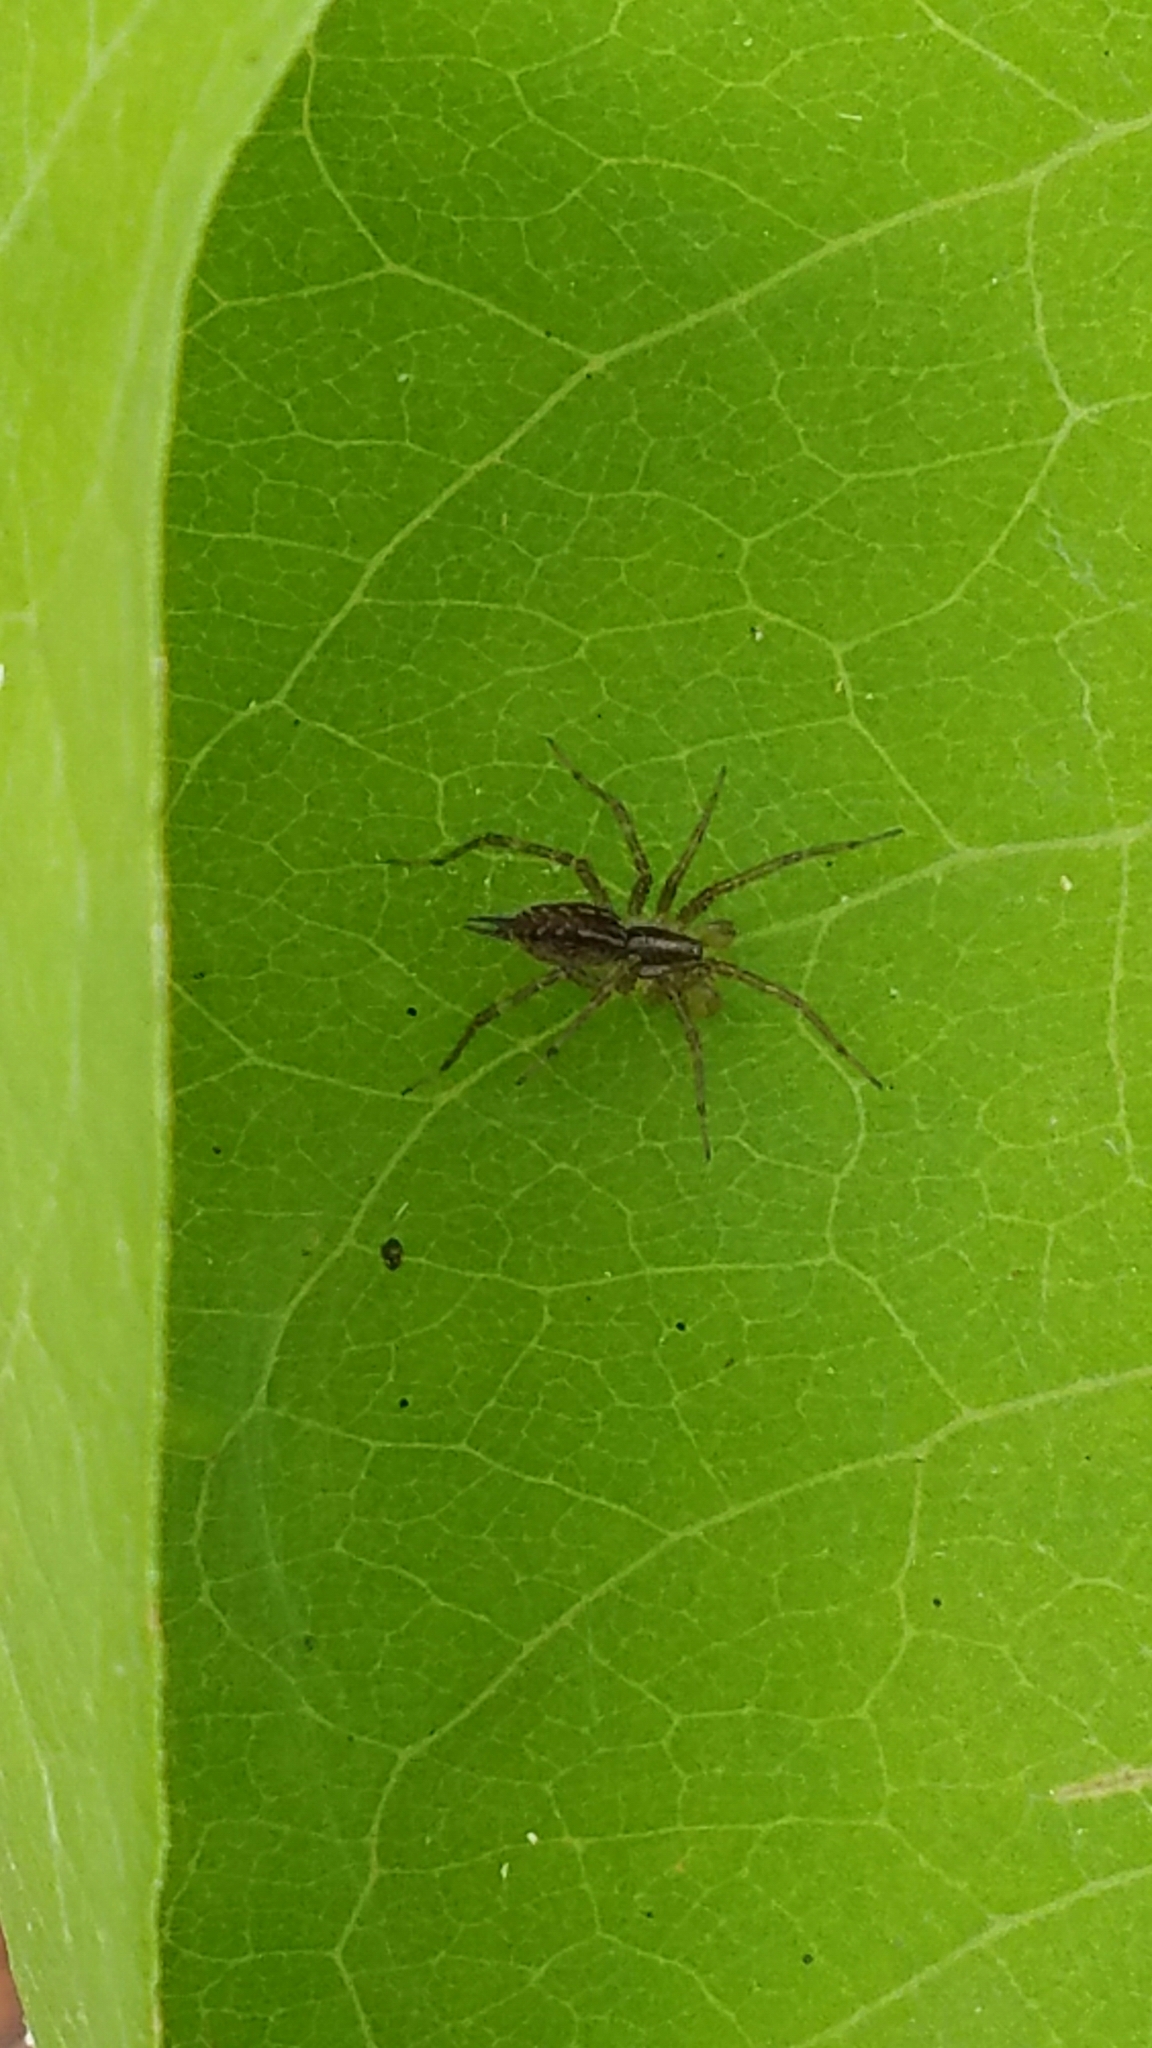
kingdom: Animalia
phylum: Arthropoda
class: Arachnida
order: Araneae
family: Agelenidae
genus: Agelenopsis
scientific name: Agelenopsis
